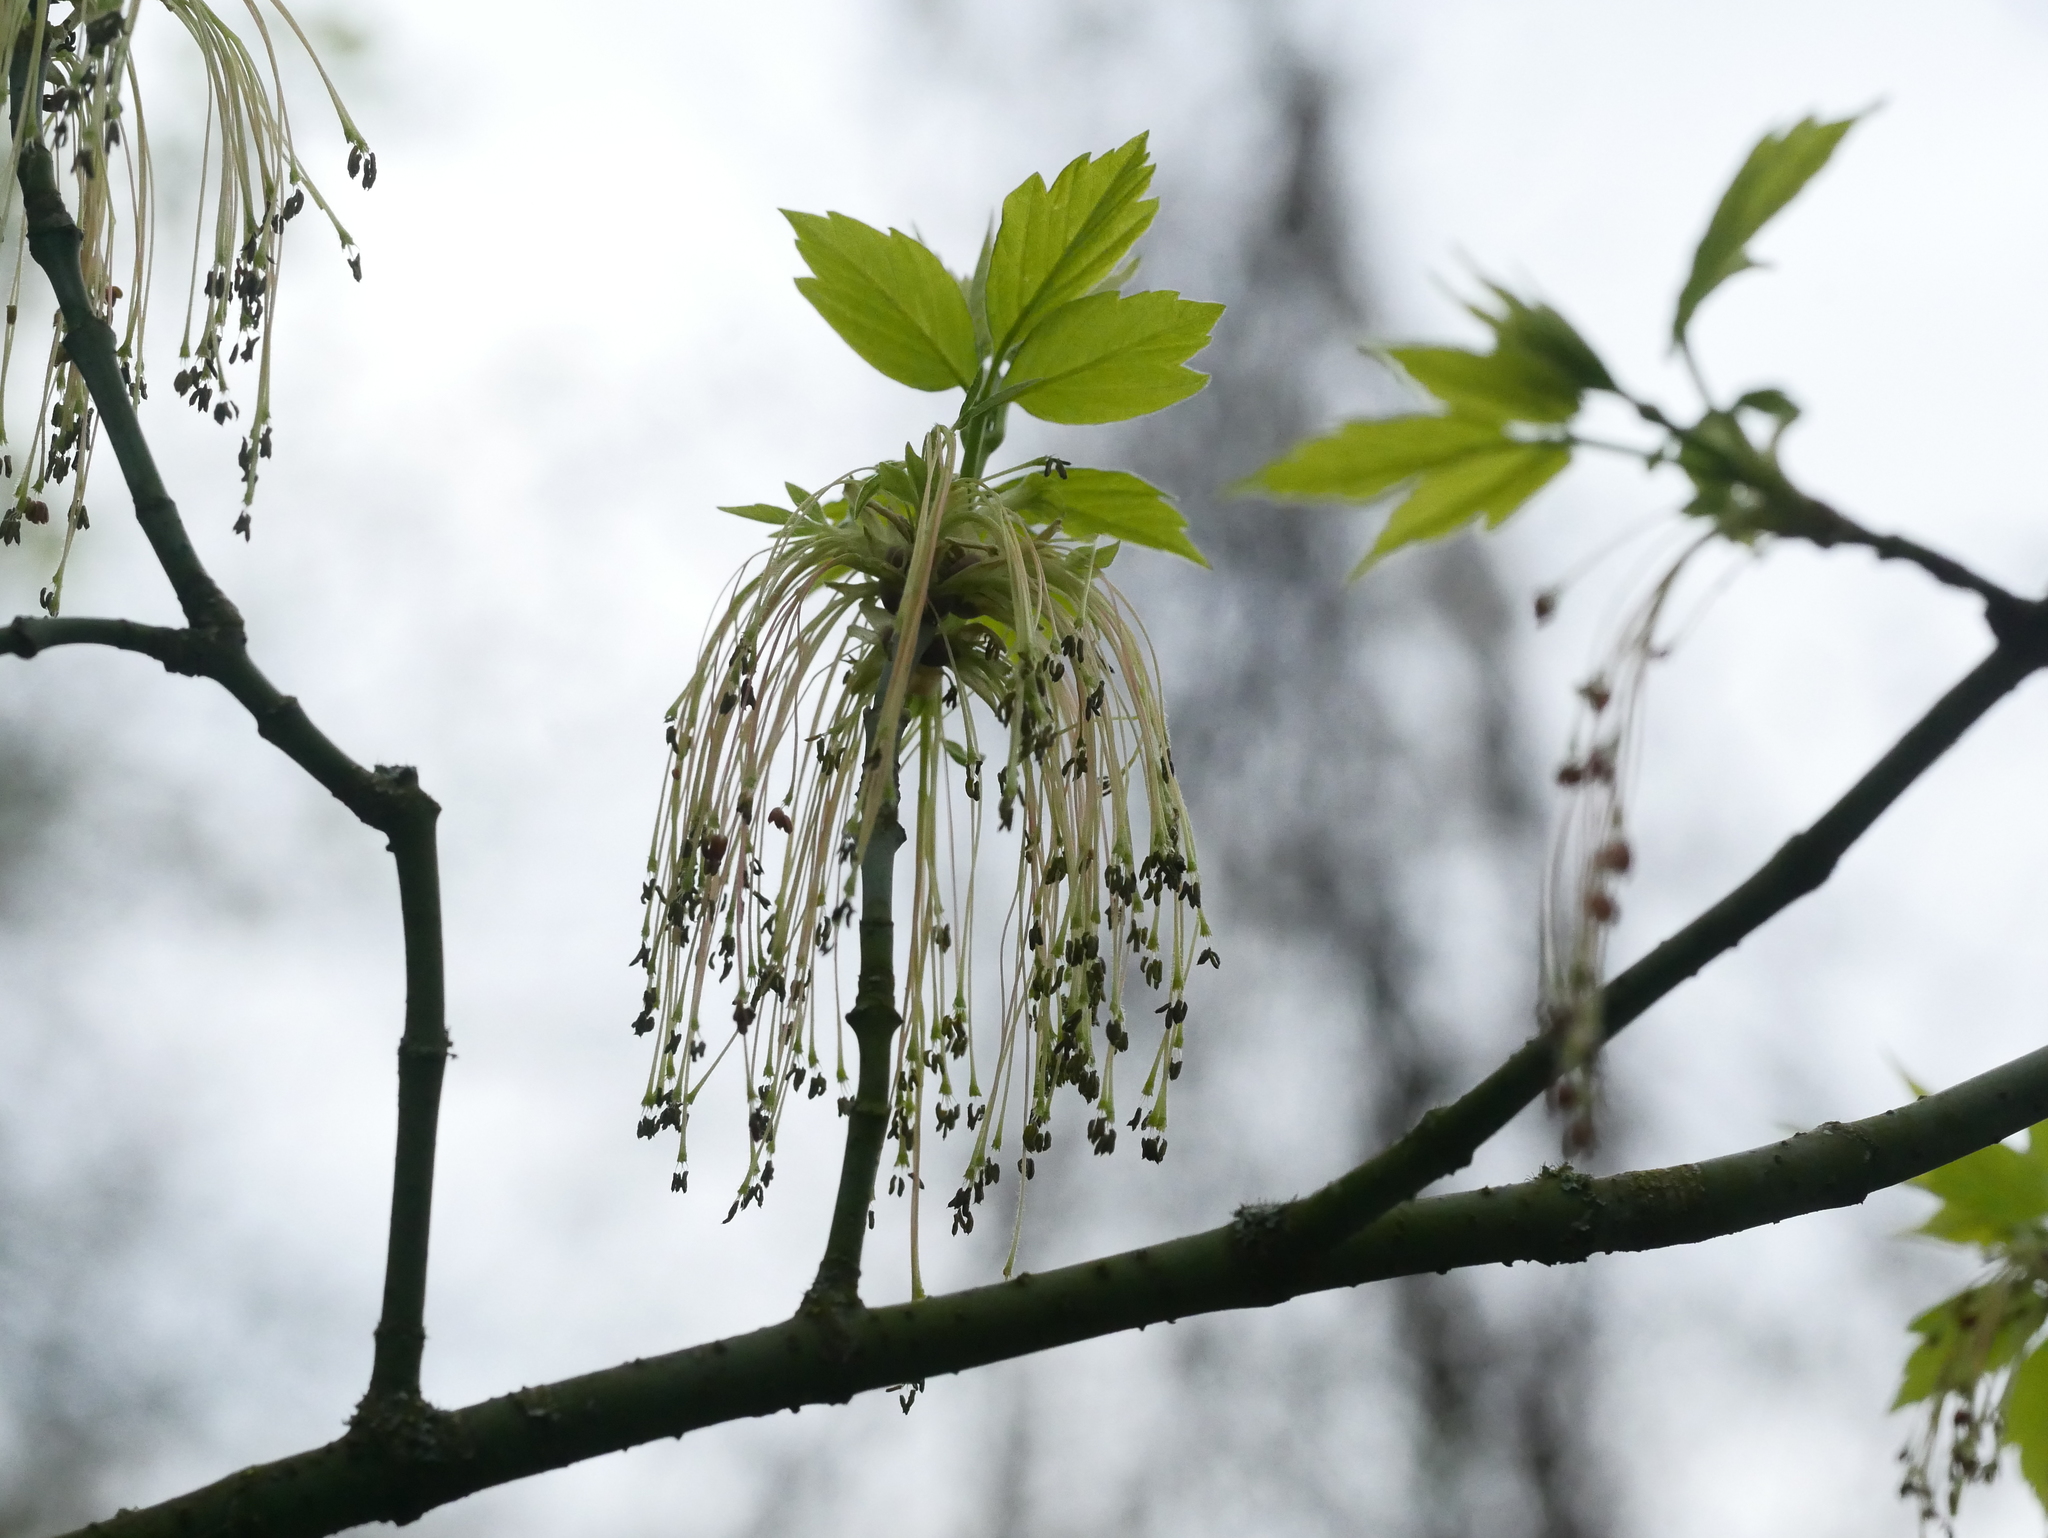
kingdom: Plantae
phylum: Tracheophyta
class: Magnoliopsida
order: Sapindales
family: Sapindaceae
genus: Acer
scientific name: Acer negundo
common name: Ashleaf maple
